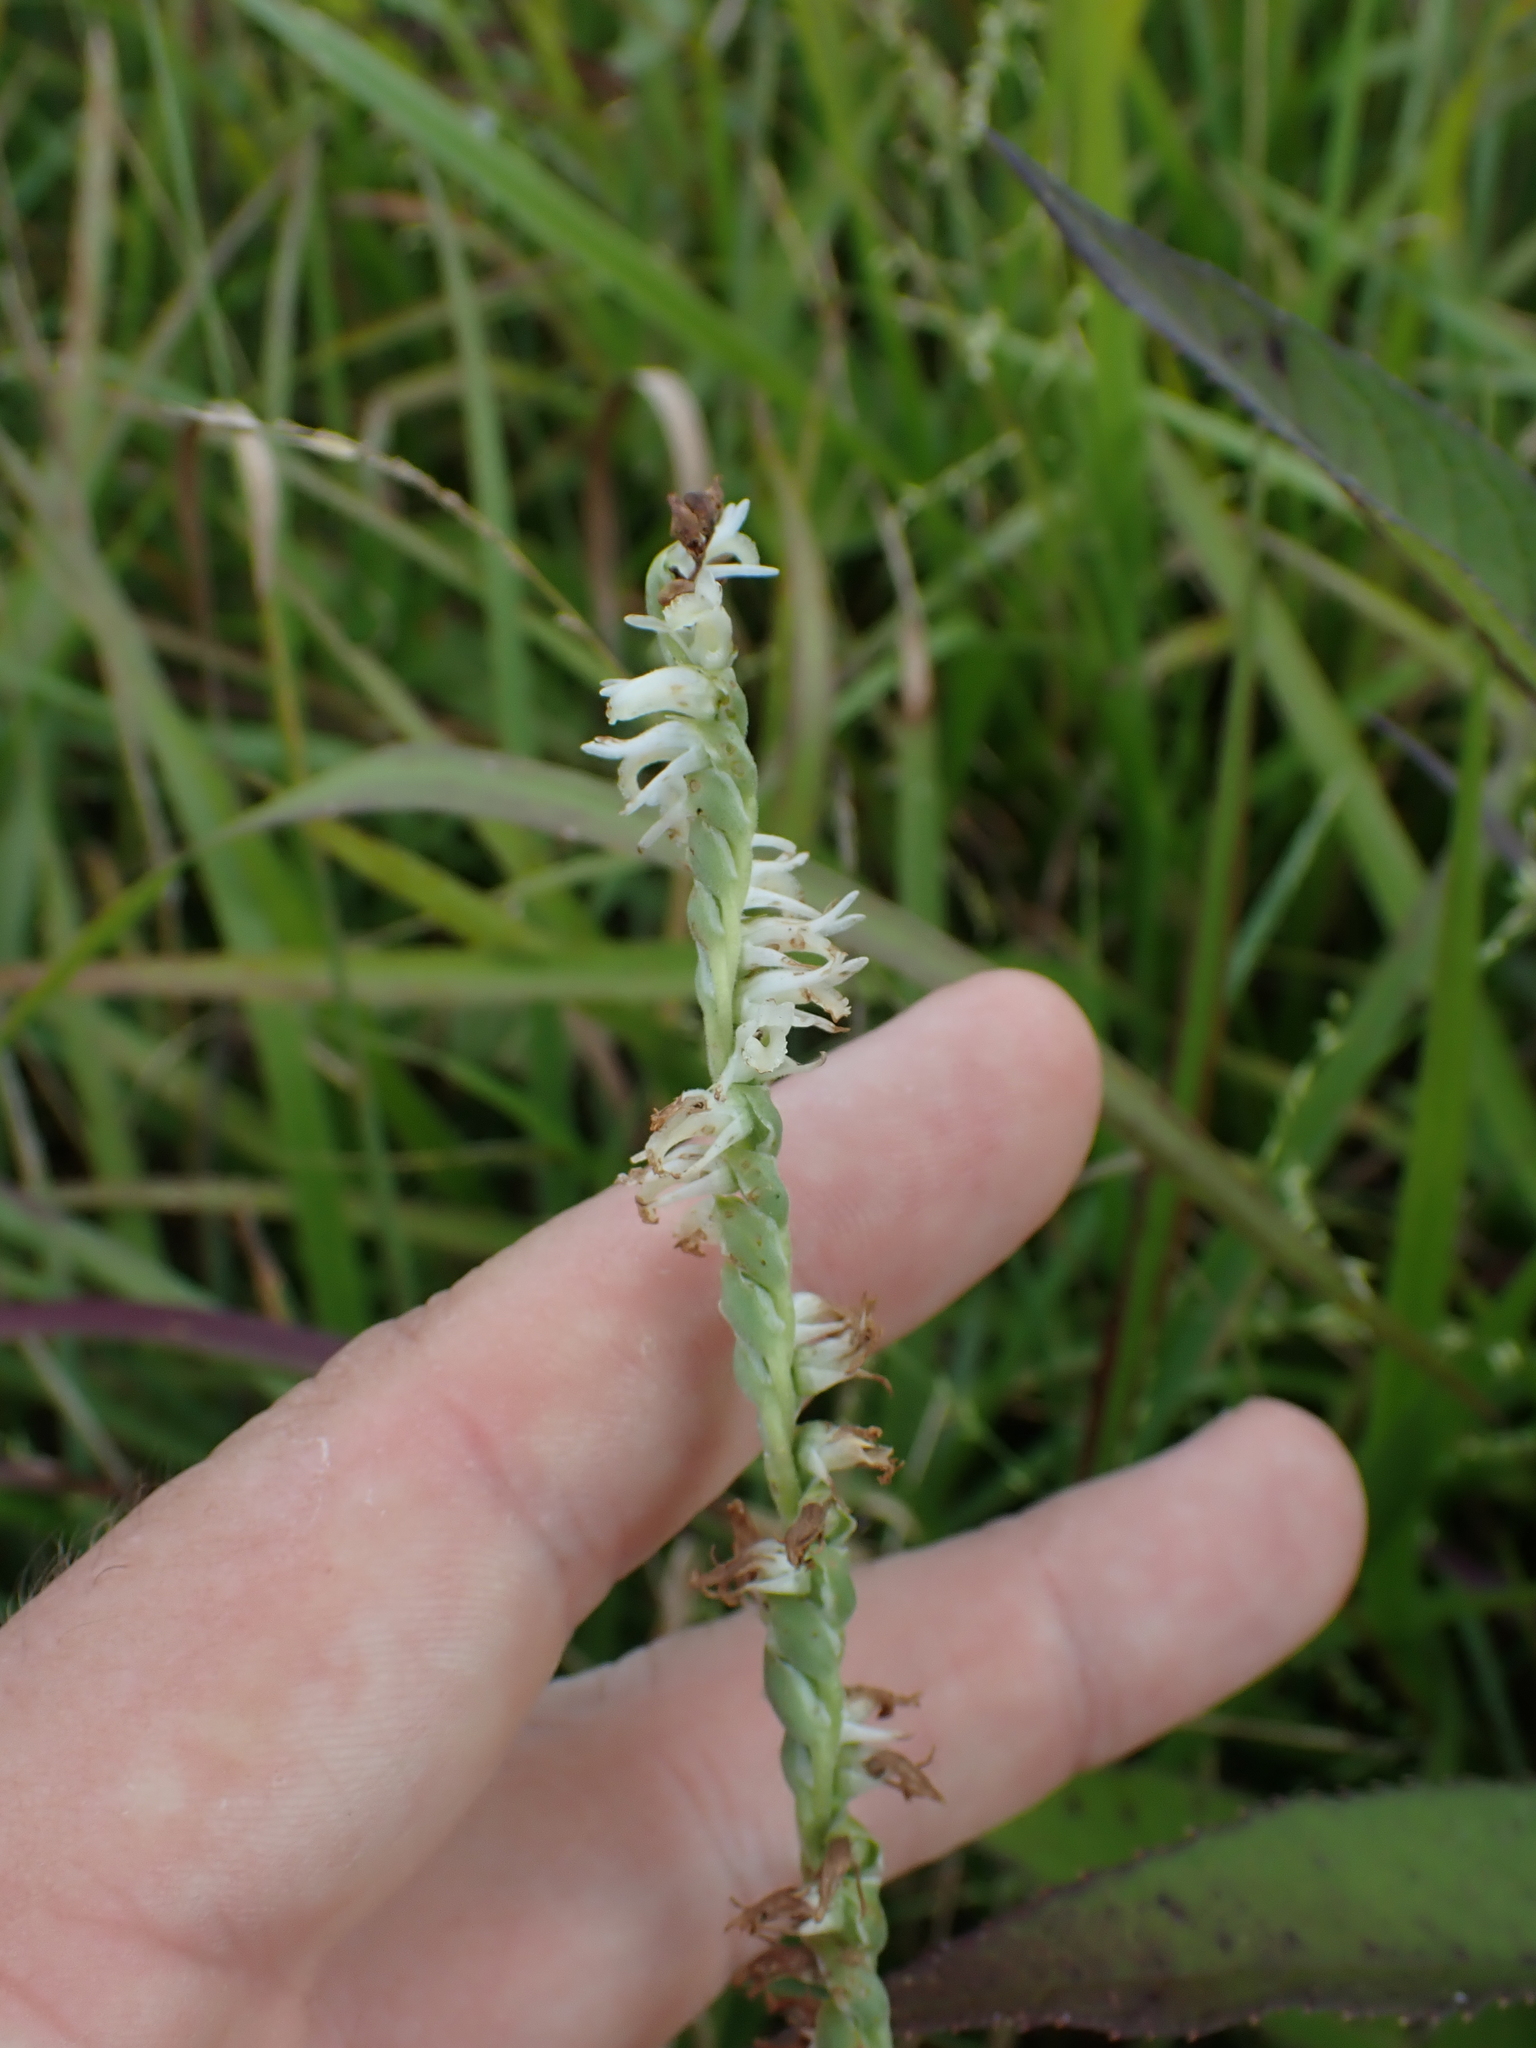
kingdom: Plantae
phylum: Tracheophyta
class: Liliopsida
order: Asparagales
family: Orchidaceae
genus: Spiranthes
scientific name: Spiranthes vernalis
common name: Spring ladies'-tresses
